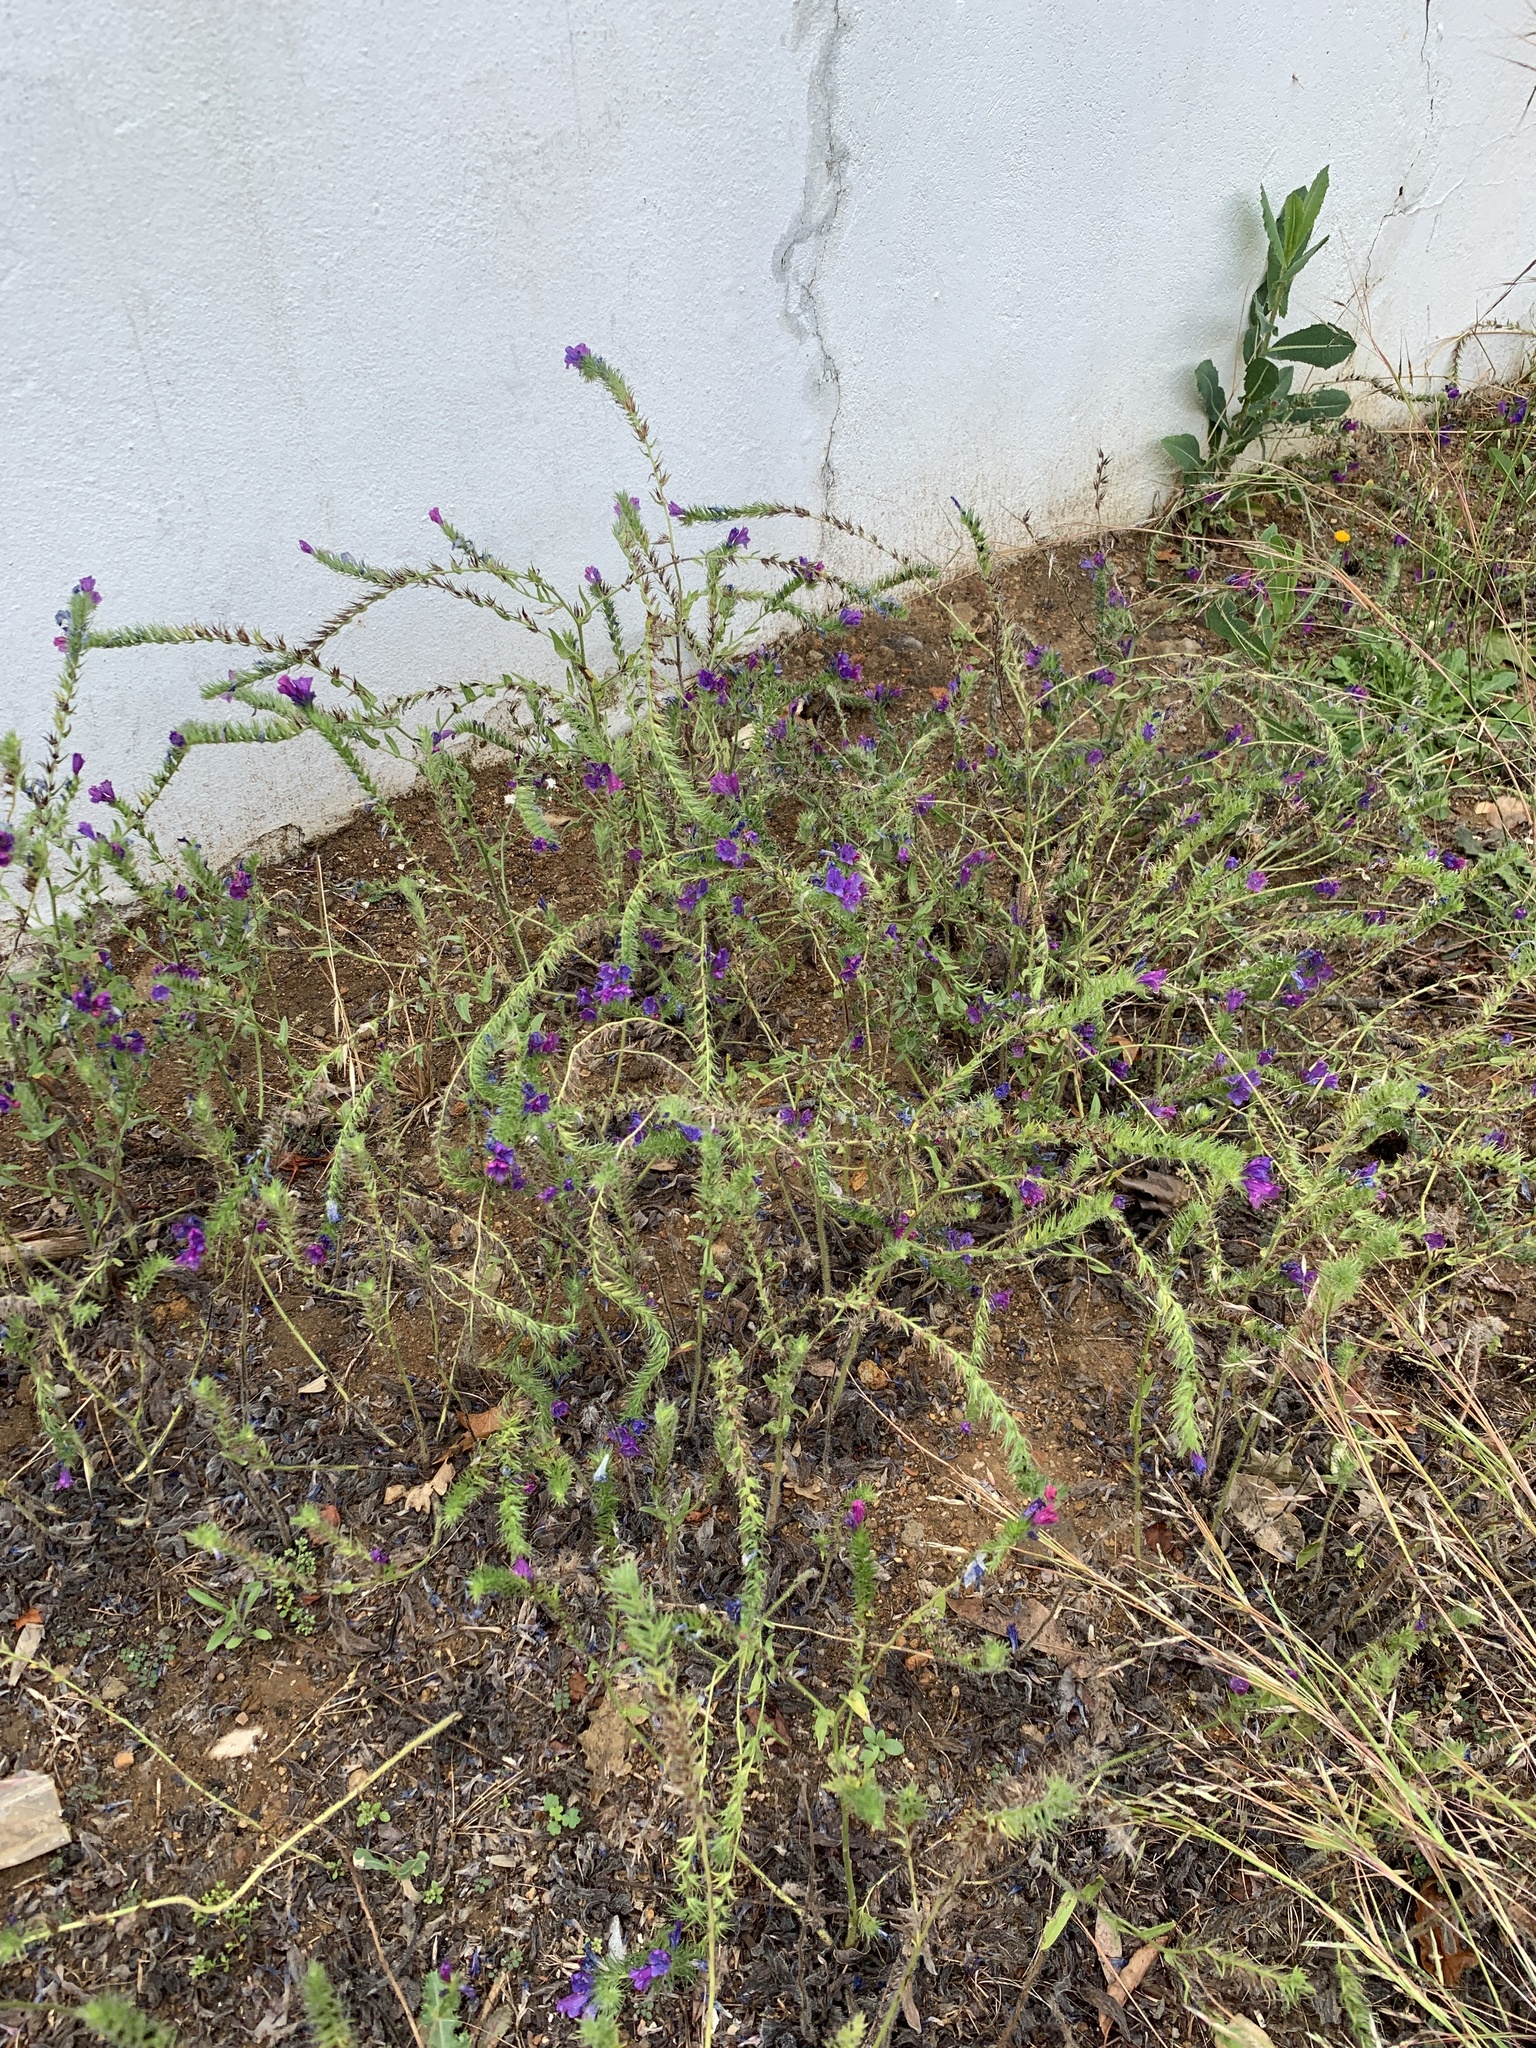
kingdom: Plantae
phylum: Tracheophyta
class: Magnoliopsida
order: Boraginales
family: Boraginaceae
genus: Echium
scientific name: Echium plantagineum
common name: Purple viper's-bugloss
